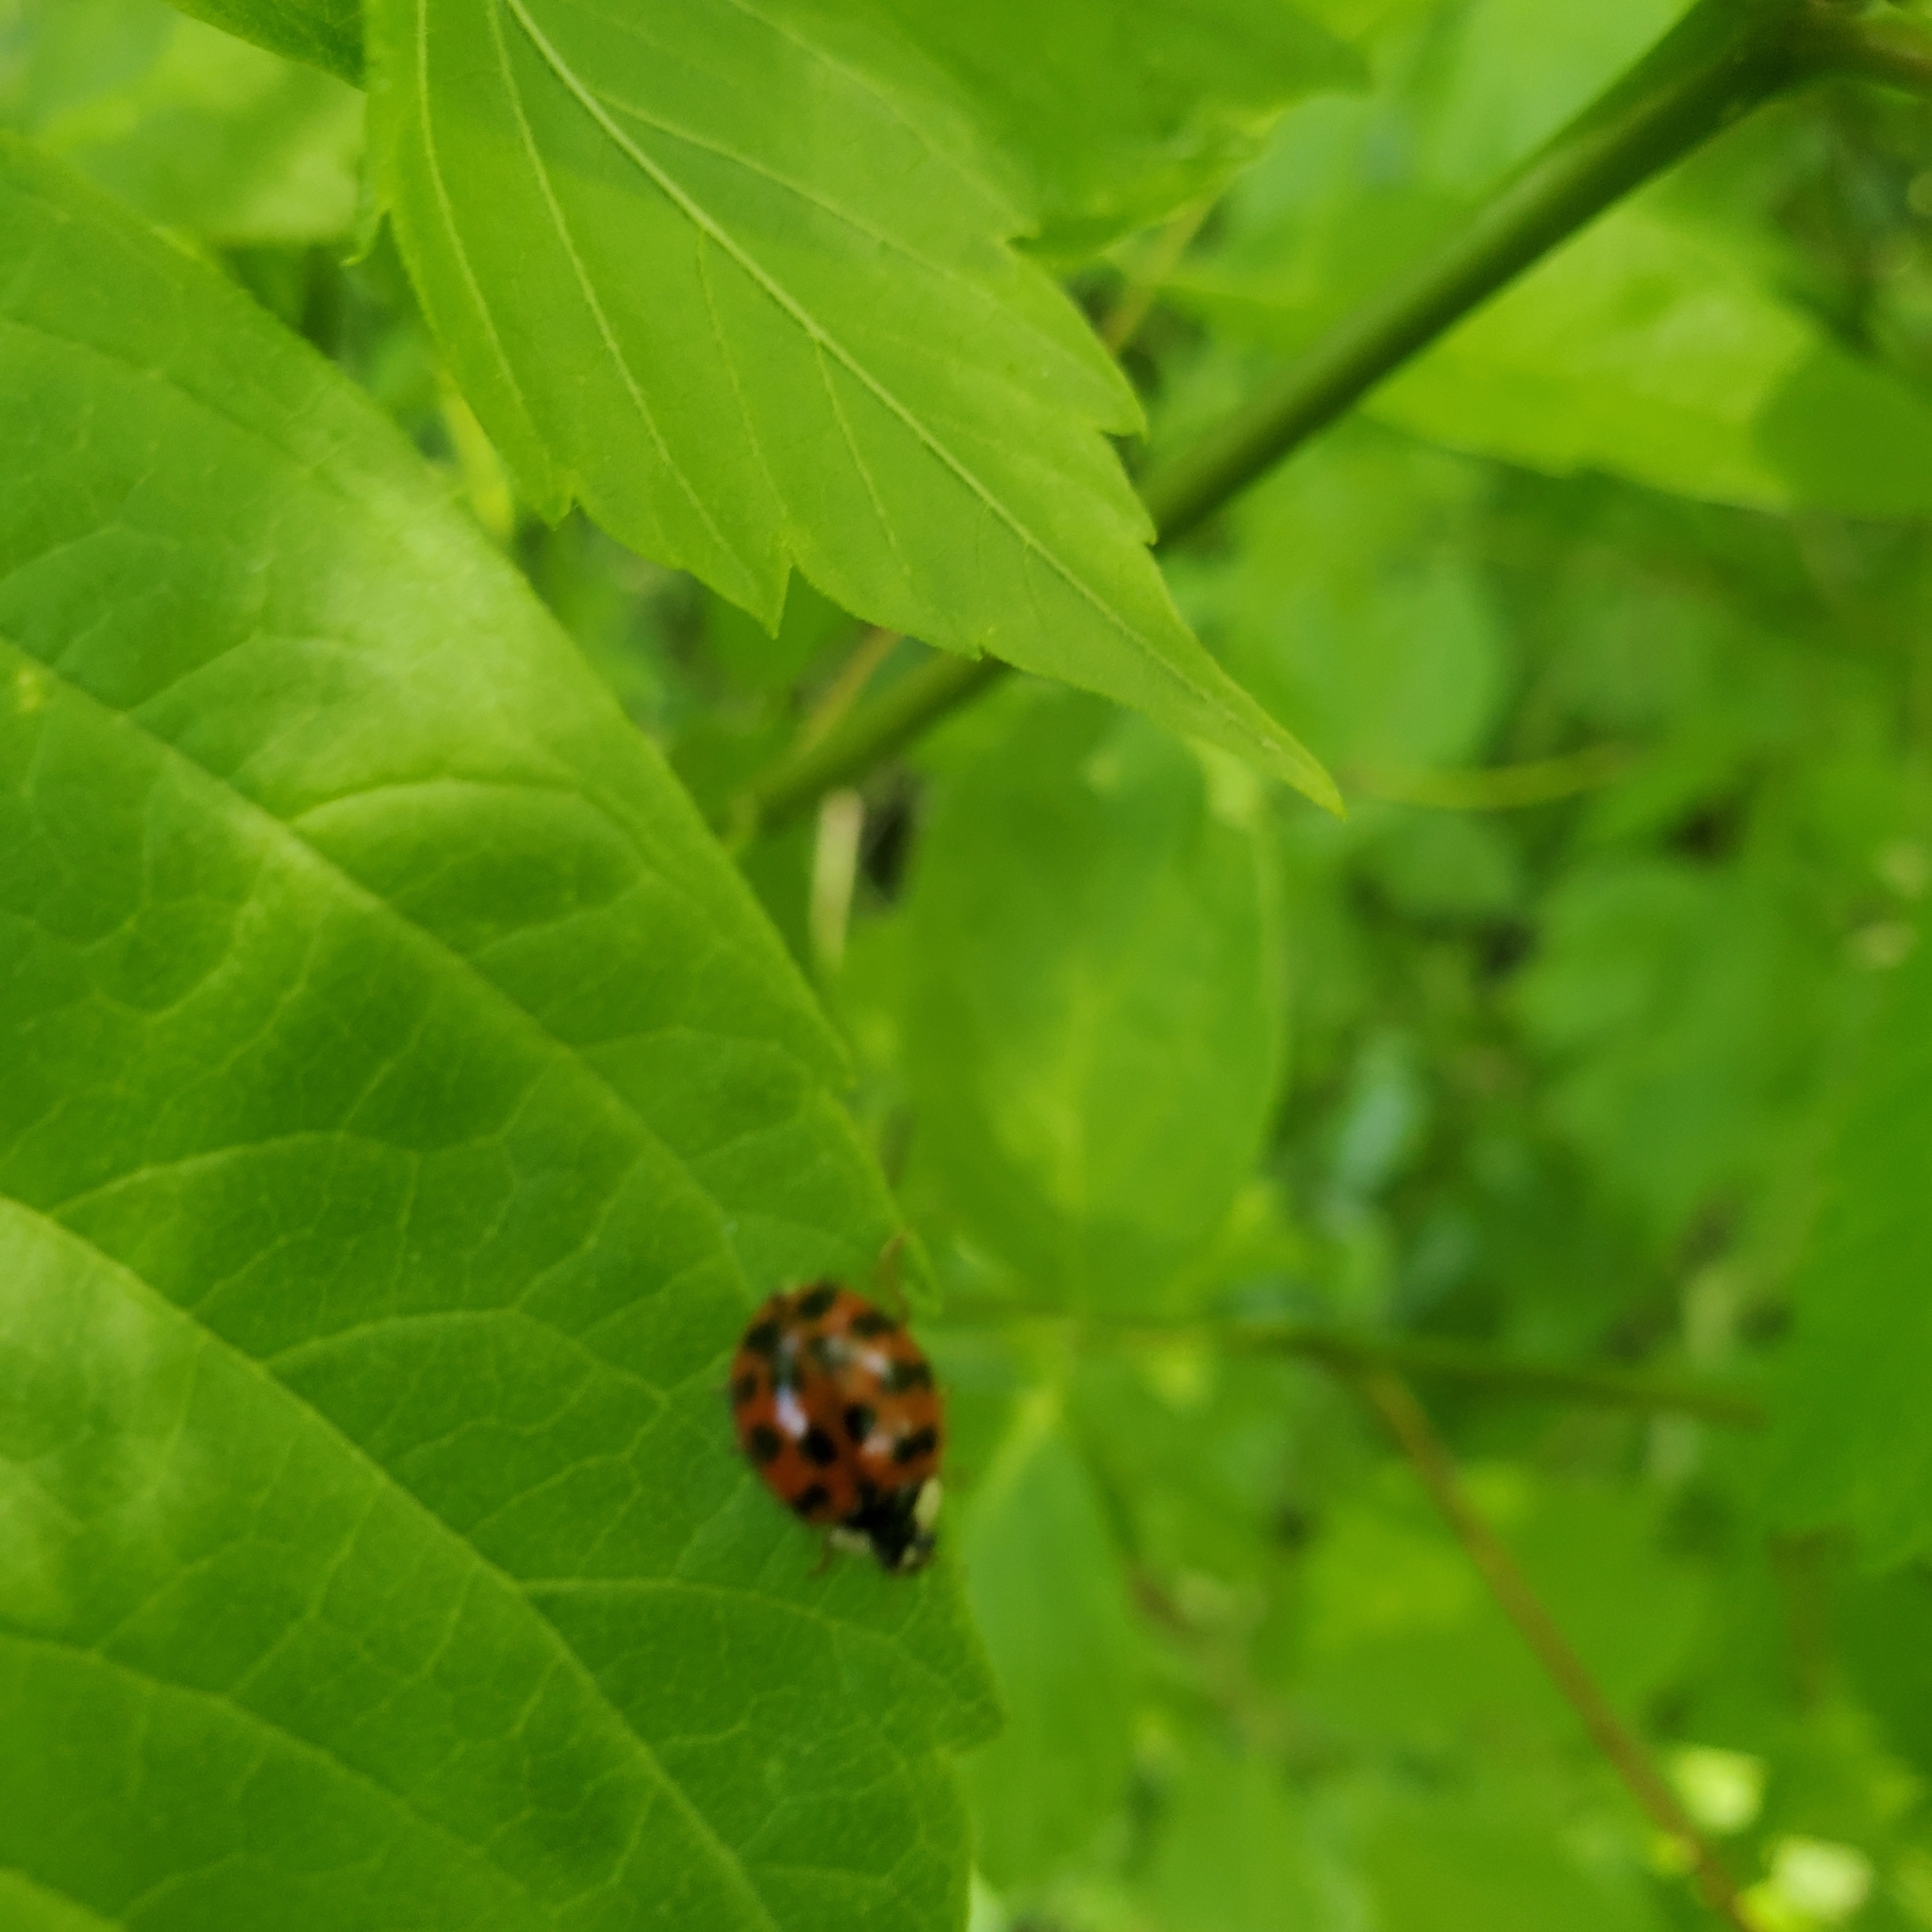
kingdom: Animalia
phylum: Arthropoda
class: Insecta
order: Coleoptera
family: Coccinellidae
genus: Harmonia
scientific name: Harmonia axyridis
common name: Harlequin ladybird
